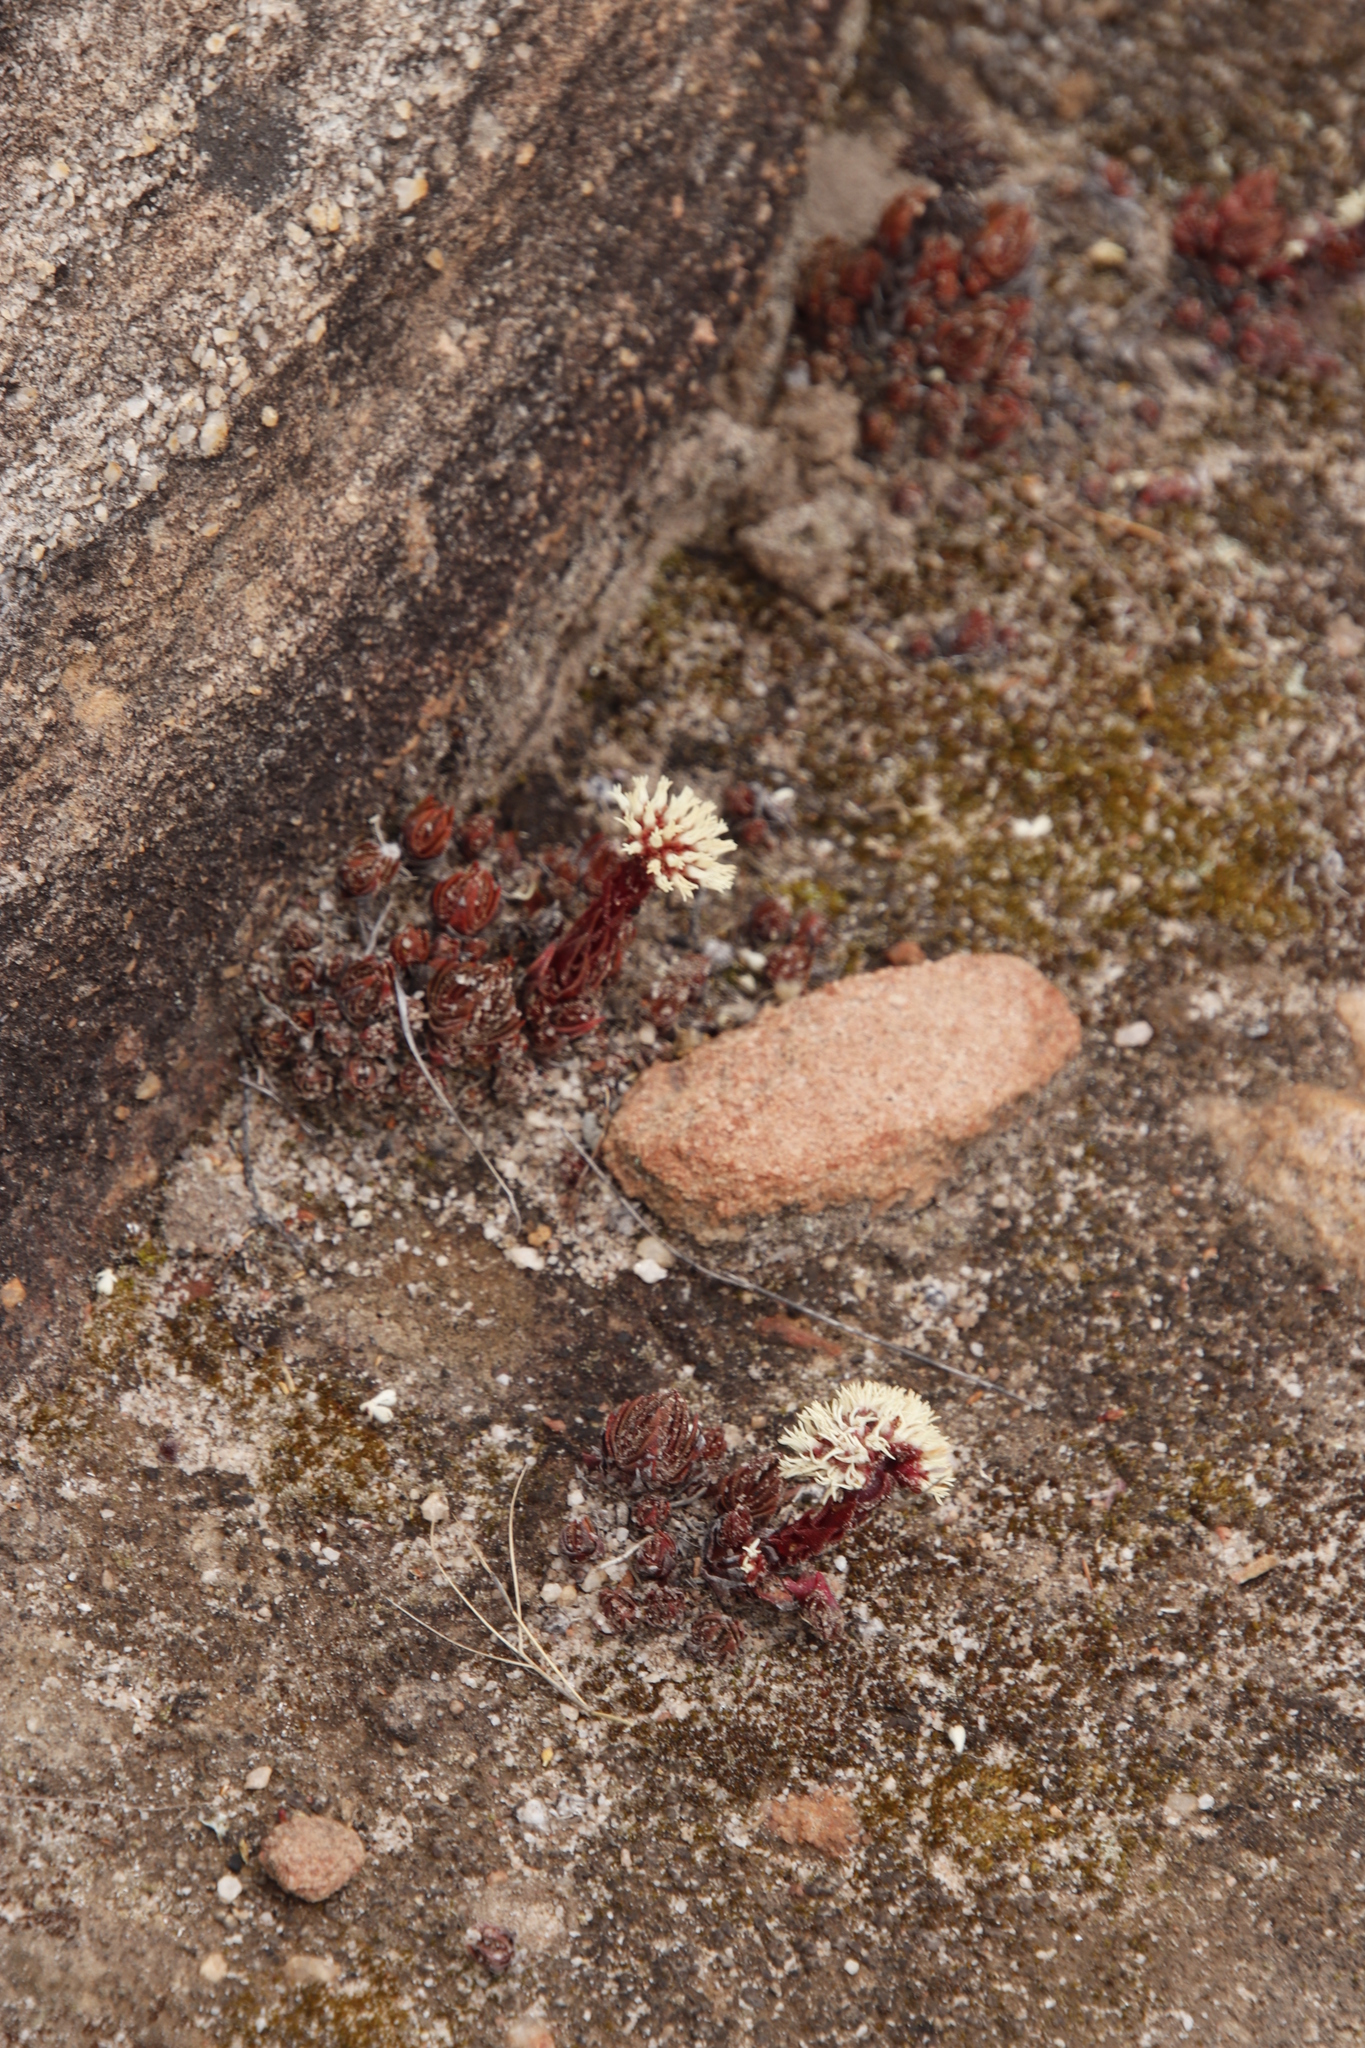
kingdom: Plantae
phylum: Tracheophyta
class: Magnoliopsida
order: Saxifragales
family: Crassulaceae
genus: Crassula
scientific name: Crassula alpestris
